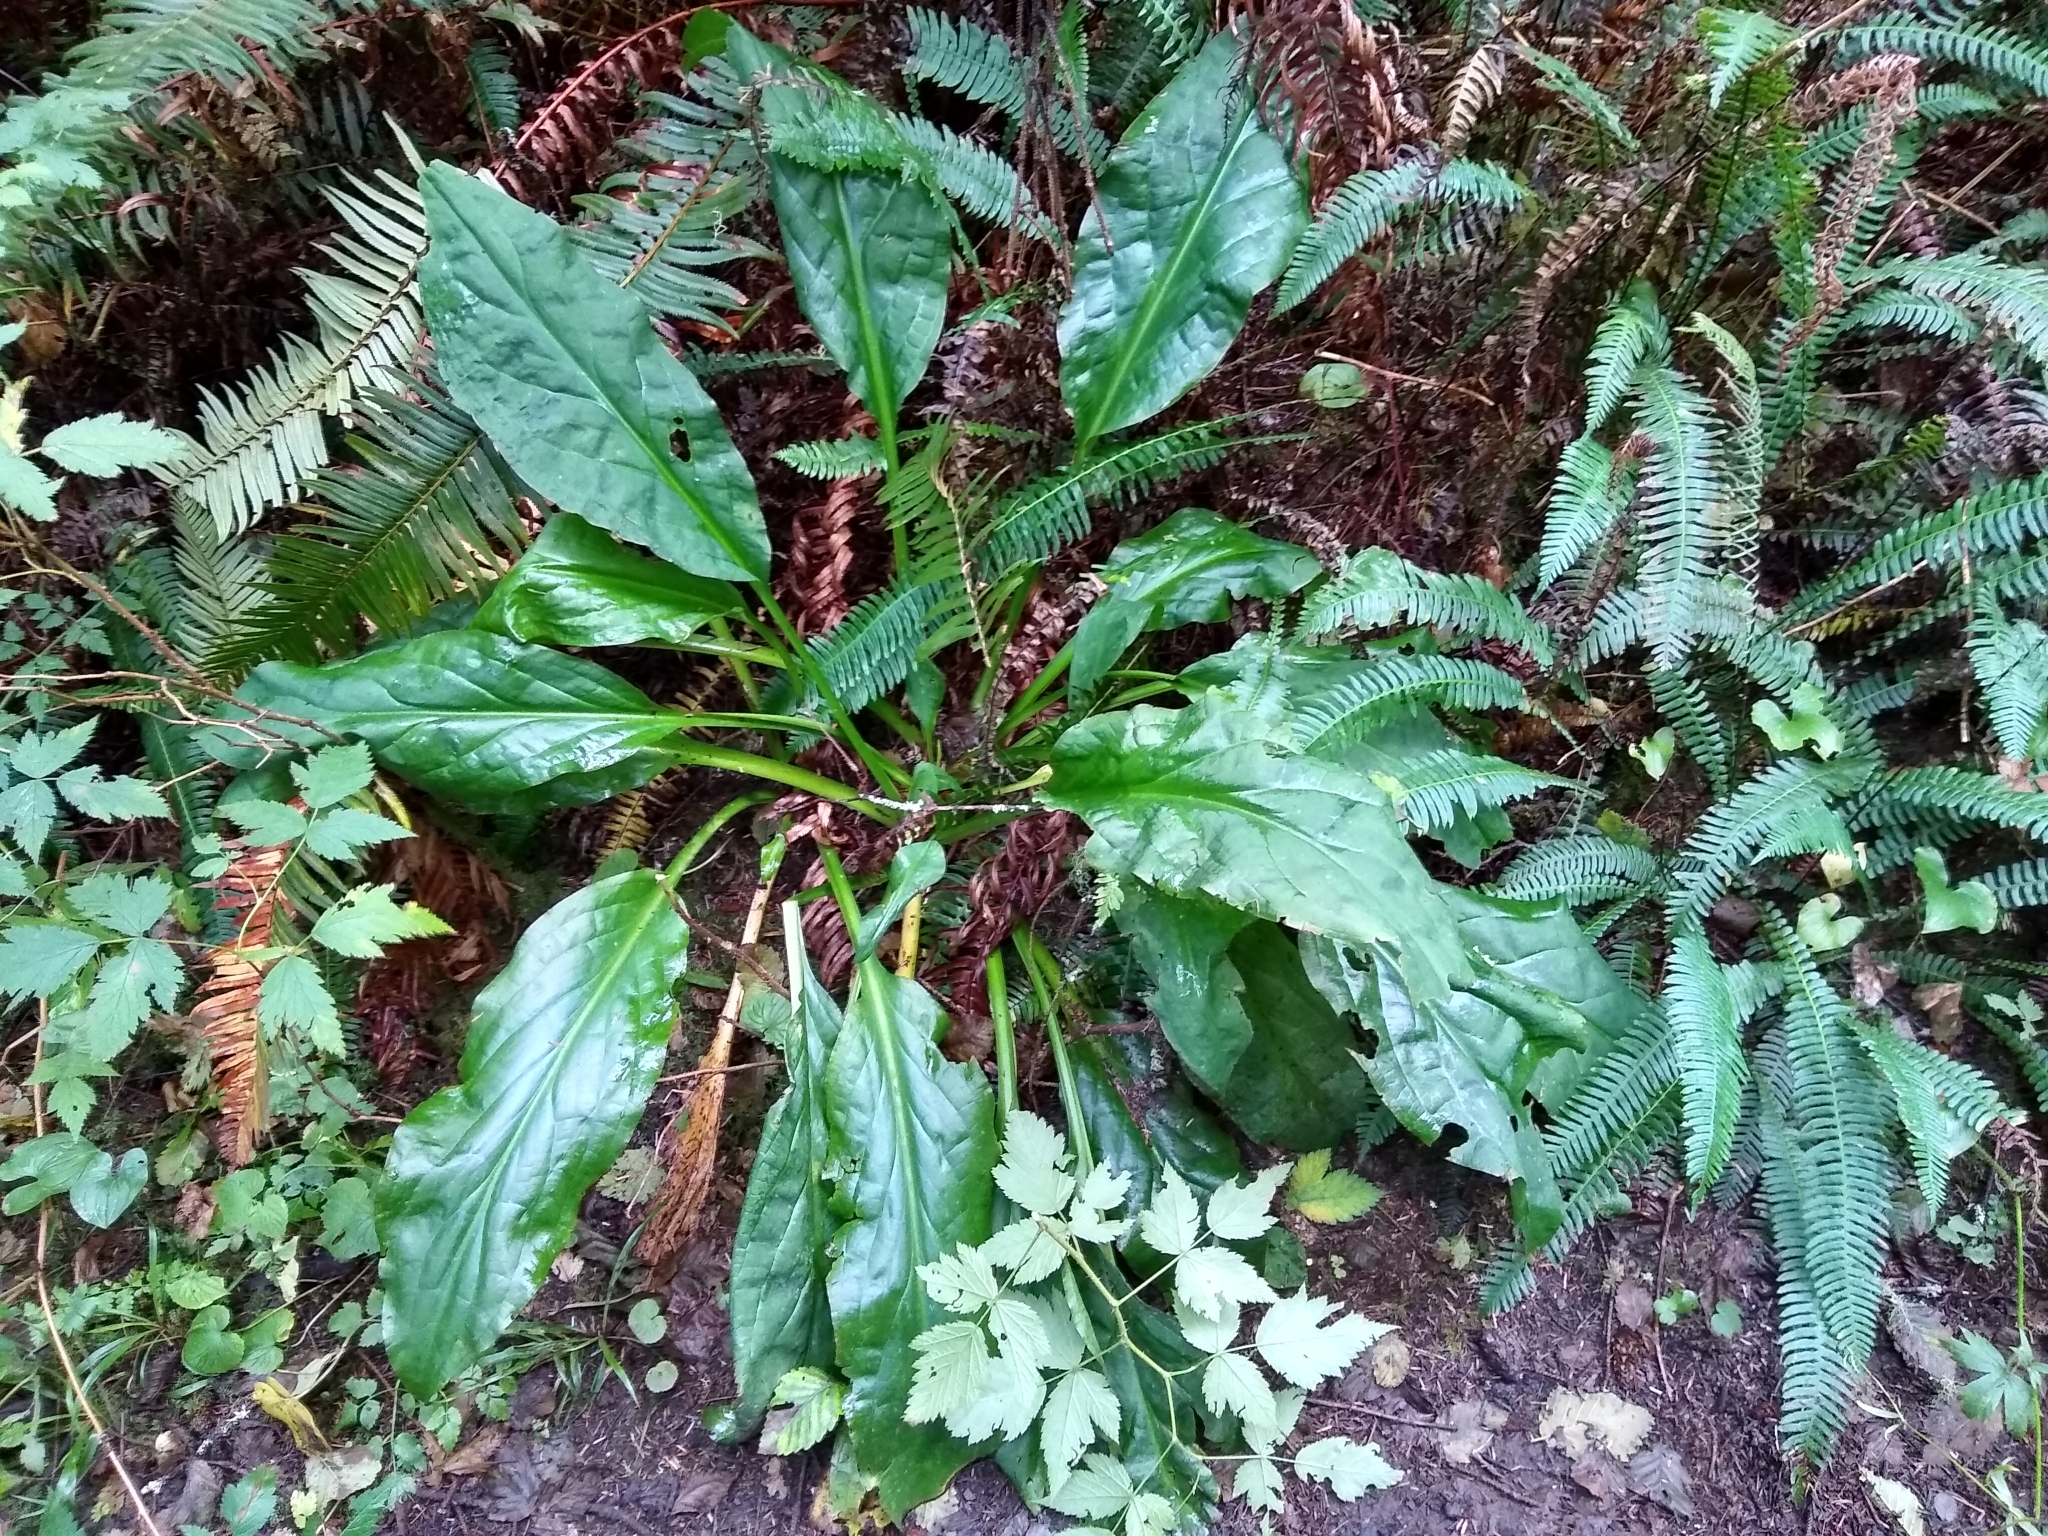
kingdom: Plantae
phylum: Tracheophyta
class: Liliopsida
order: Alismatales
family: Araceae
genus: Lysichiton
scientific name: Lysichiton americanus
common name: American skunk cabbage
